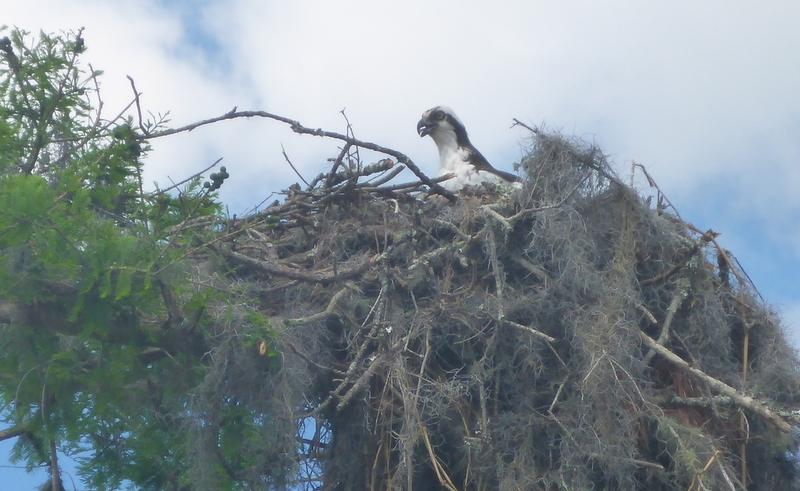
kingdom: Animalia
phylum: Chordata
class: Aves
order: Accipitriformes
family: Pandionidae
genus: Pandion
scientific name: Pandion haliaetus
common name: Osprey
